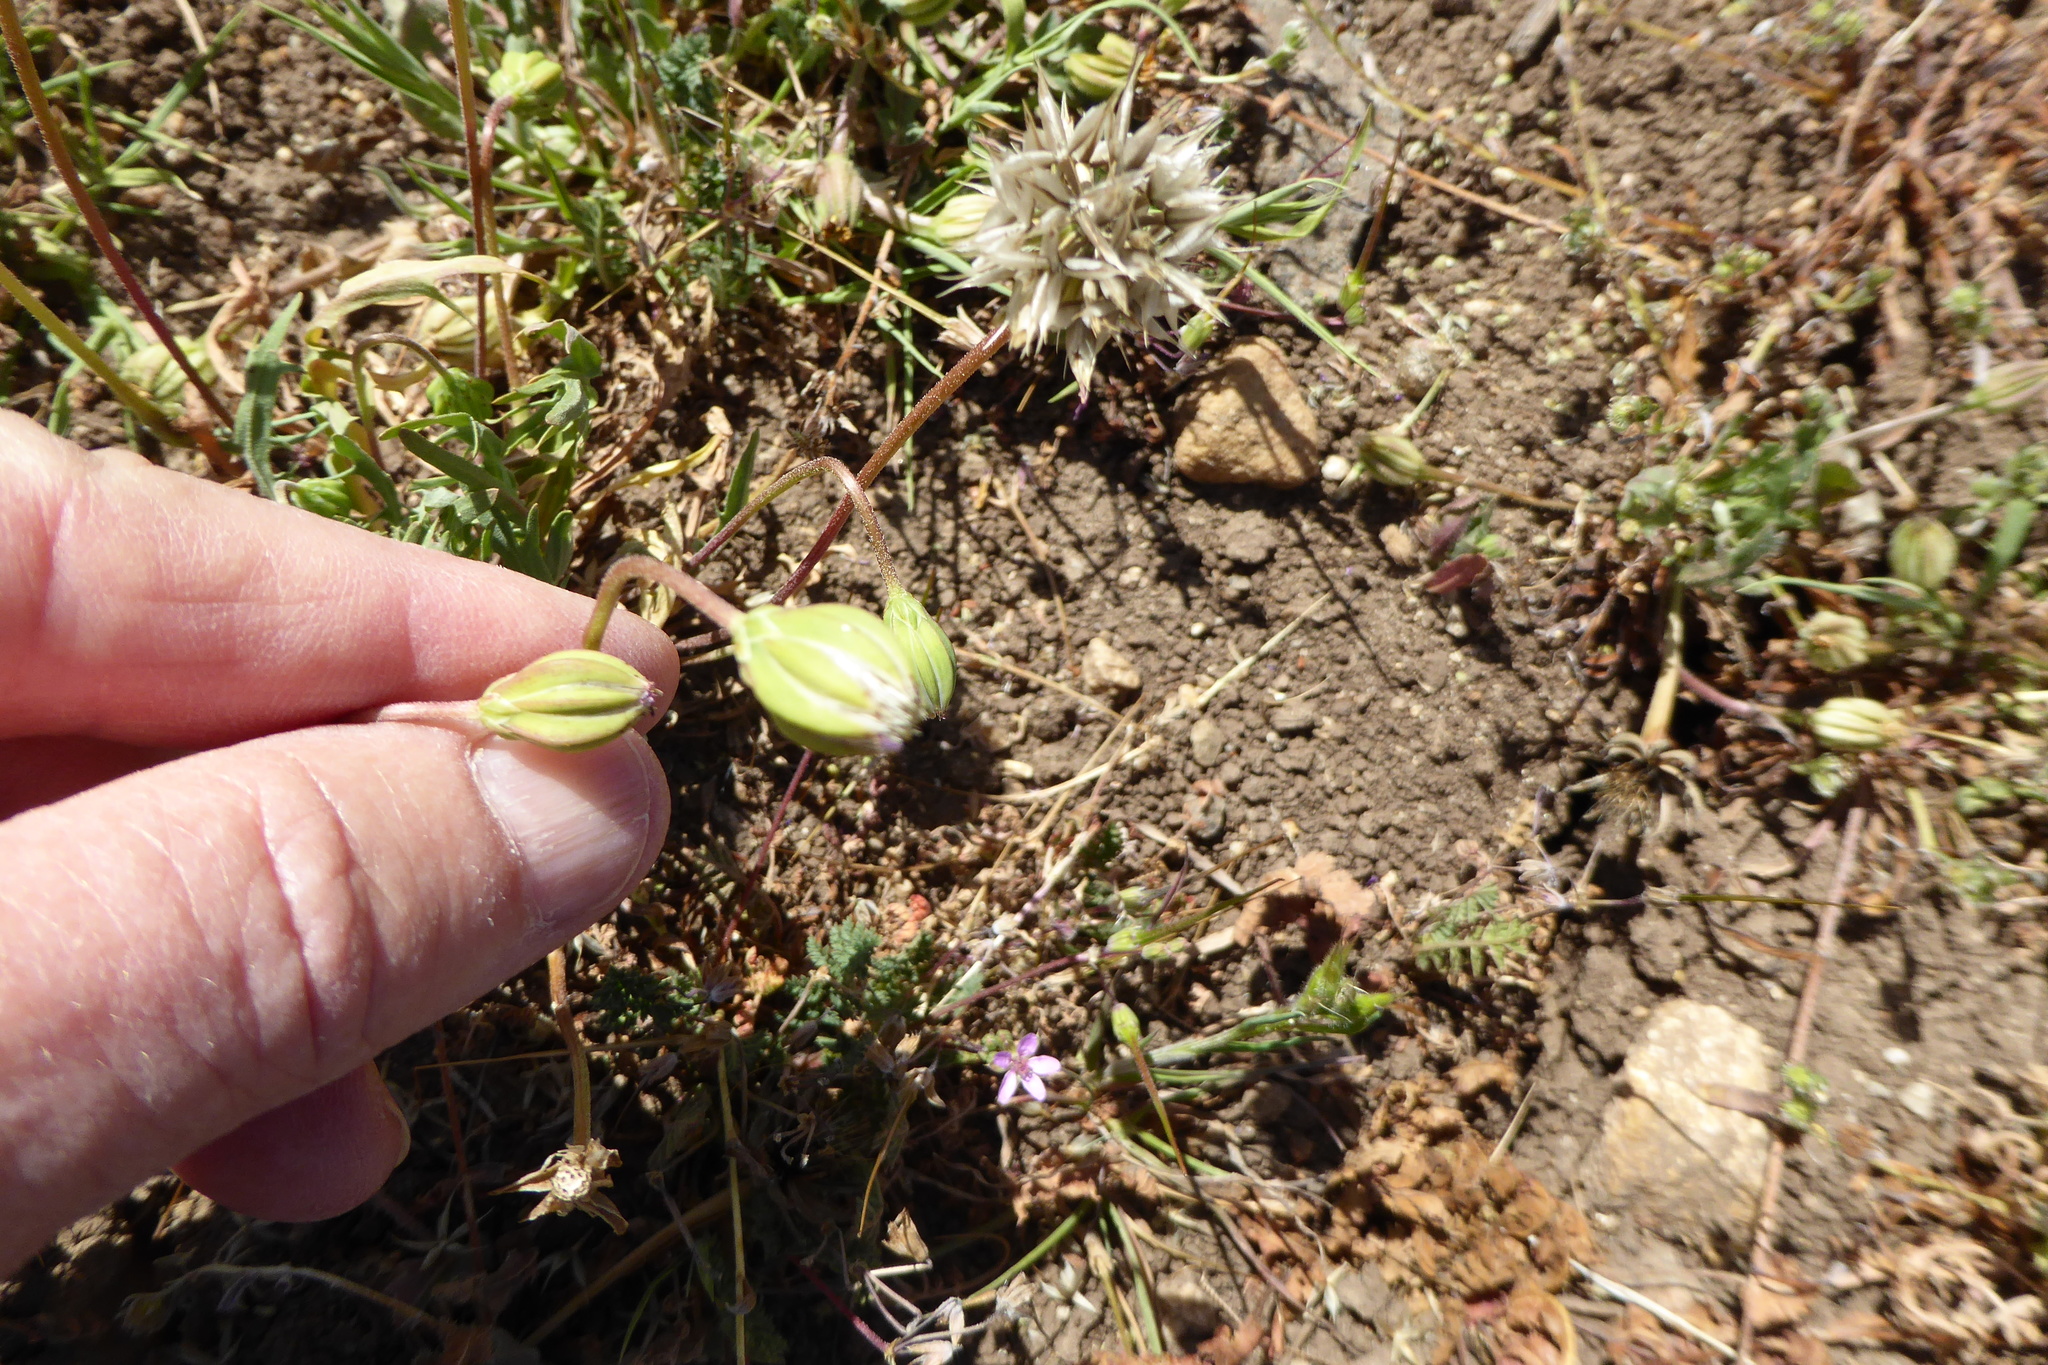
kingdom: Plantae
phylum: Tracheophyta
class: Magnoliopsida
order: Asterales
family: Asteraceae
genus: Microseris
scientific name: Microseris douglasii
